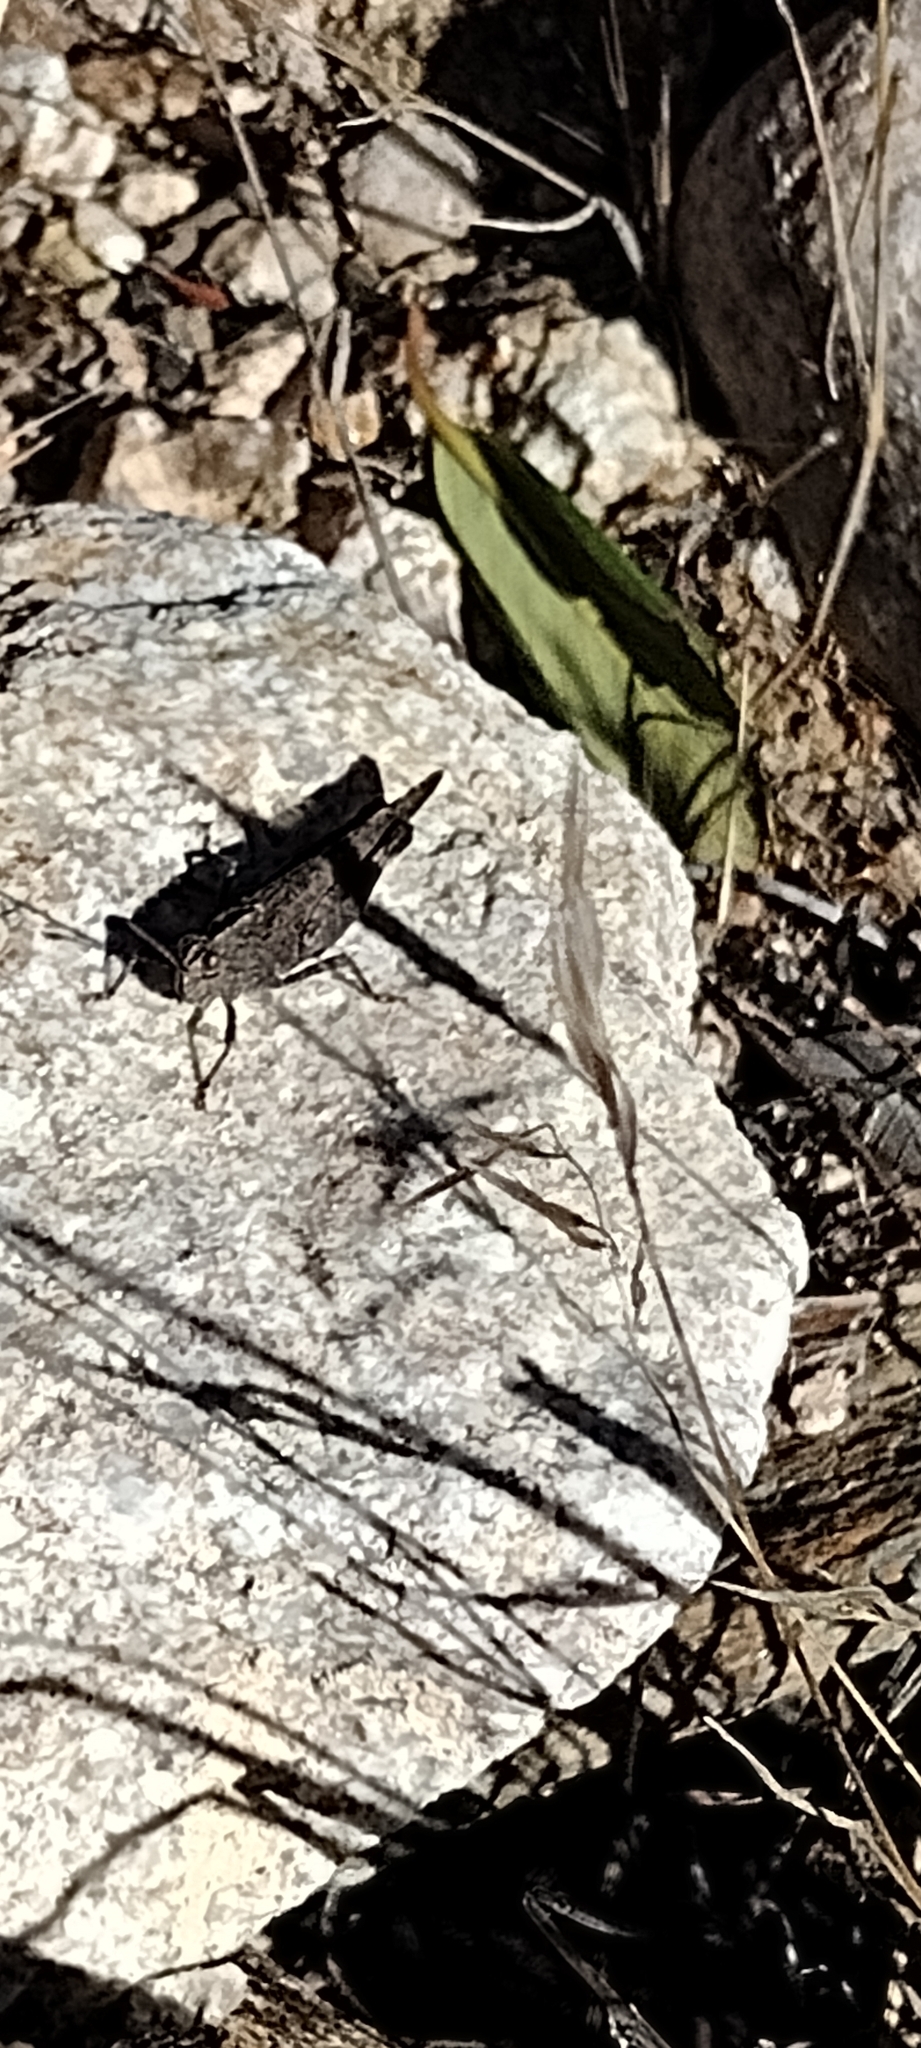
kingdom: Animalia
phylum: Arthropoda
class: Insecta
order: Orthoptera
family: Acrididae
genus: Lactista
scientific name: Lactista gibbosus
